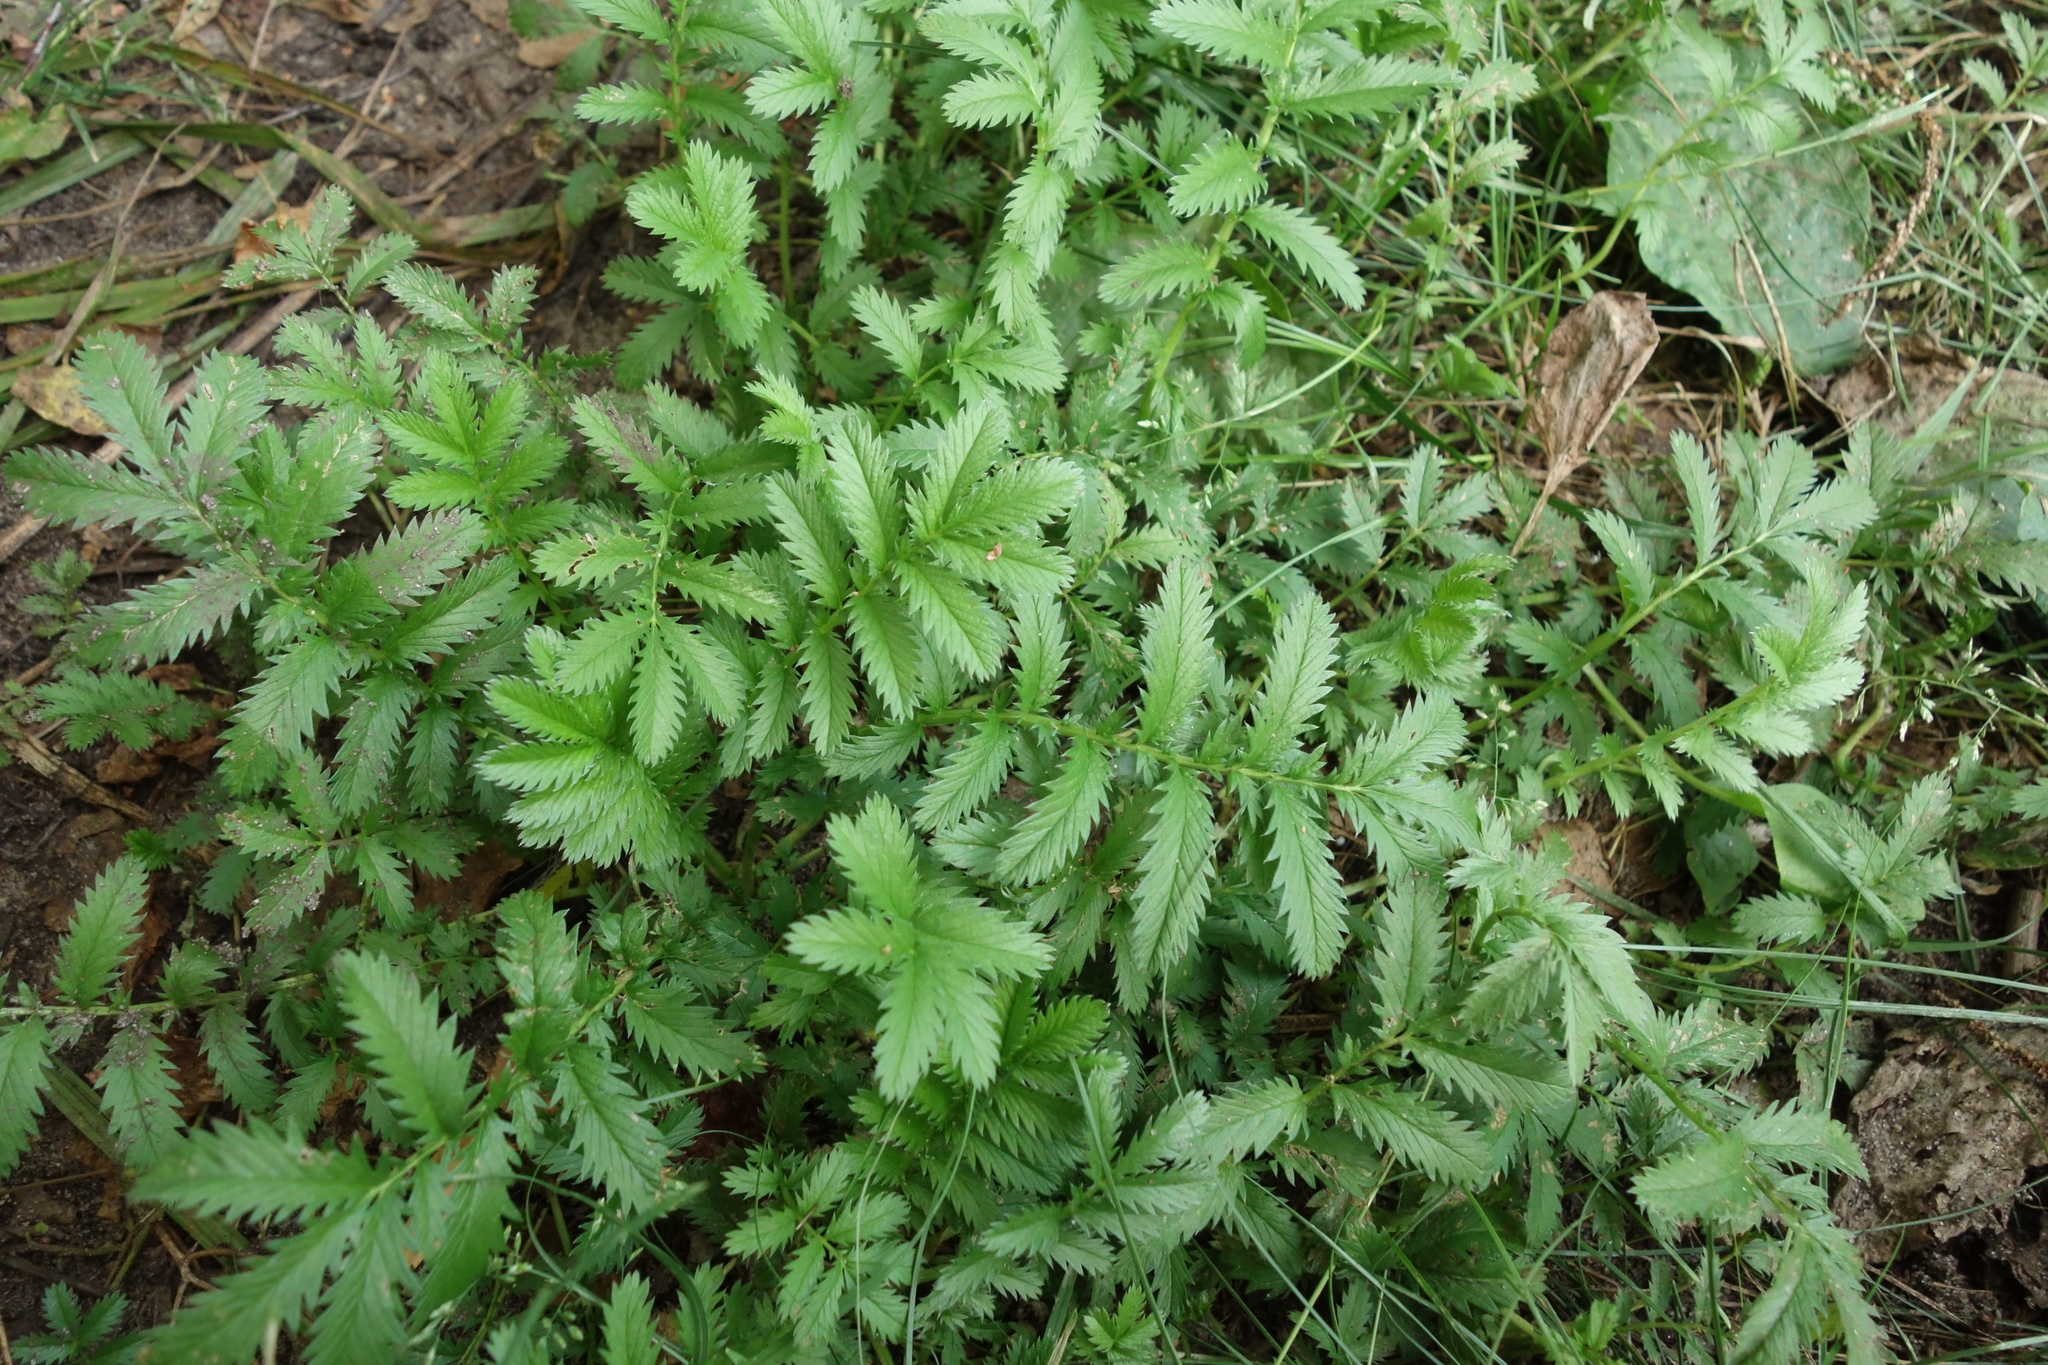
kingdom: Plantae
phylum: Tracheophyta
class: Magnoliopsida
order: Rosales
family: Rosaceae
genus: Argentina
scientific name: Argentina anserina
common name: Common silverweed
